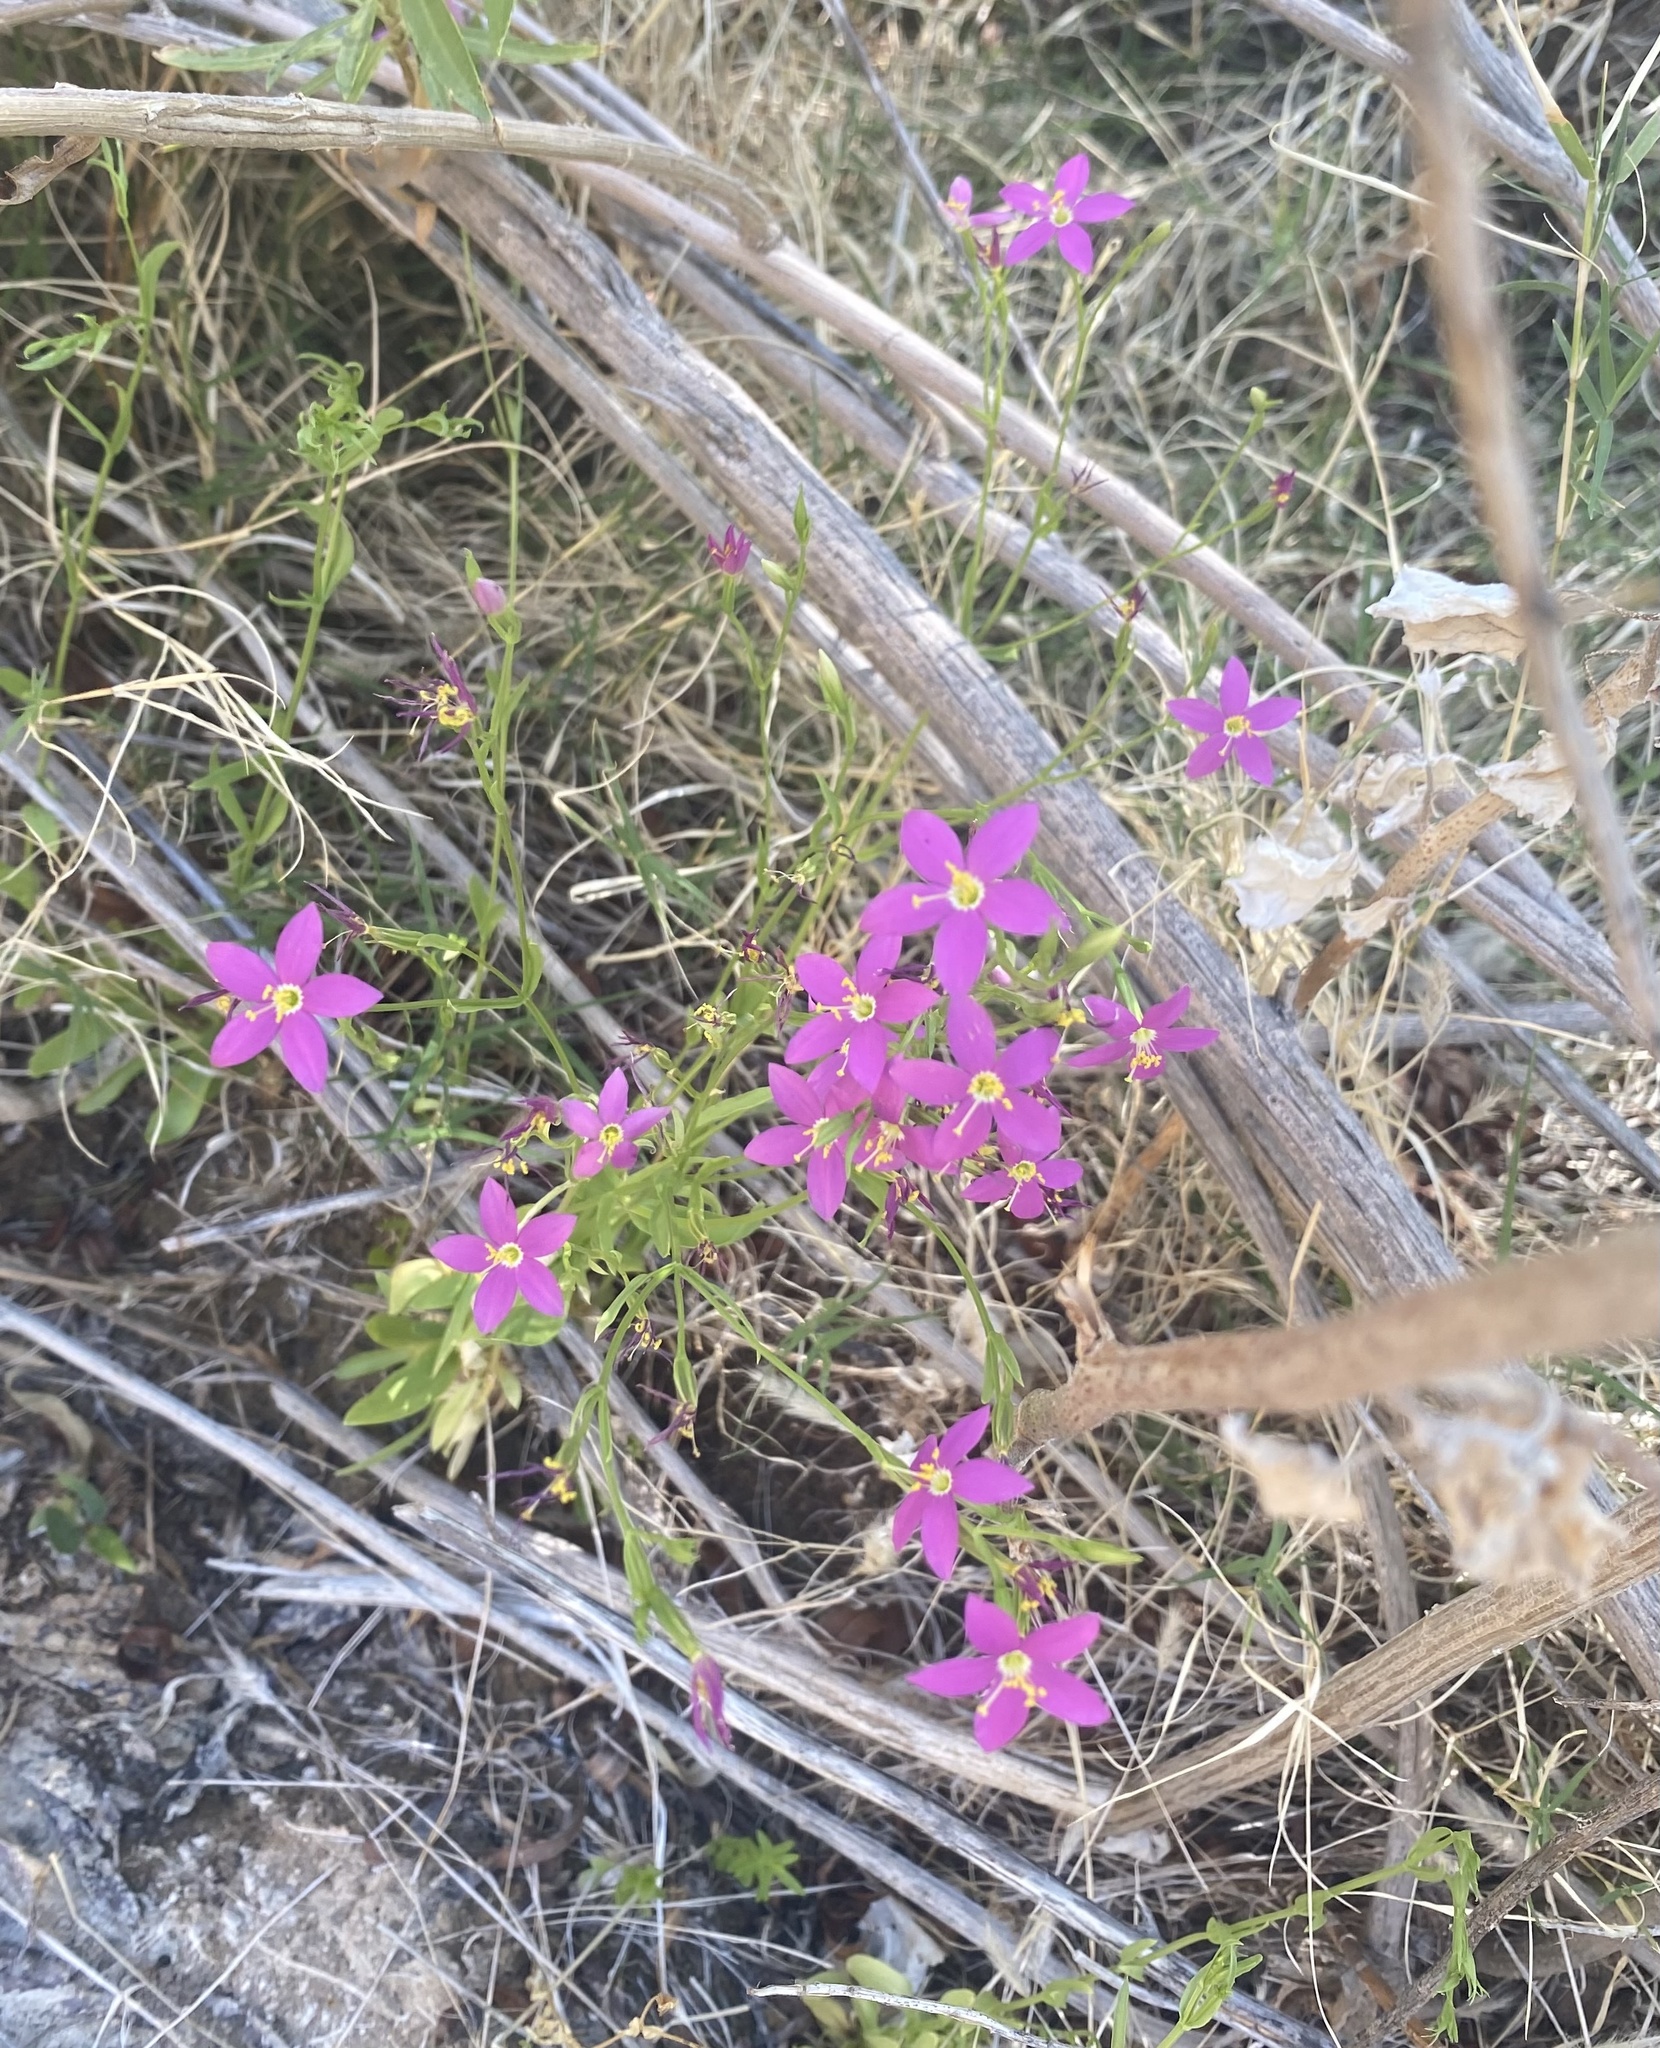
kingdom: Plantae
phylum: Tracheophyta
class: Magnoliopsida
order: Gentianales
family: Gentianaceae
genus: Zeltnera
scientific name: Zeltnera calycosa
